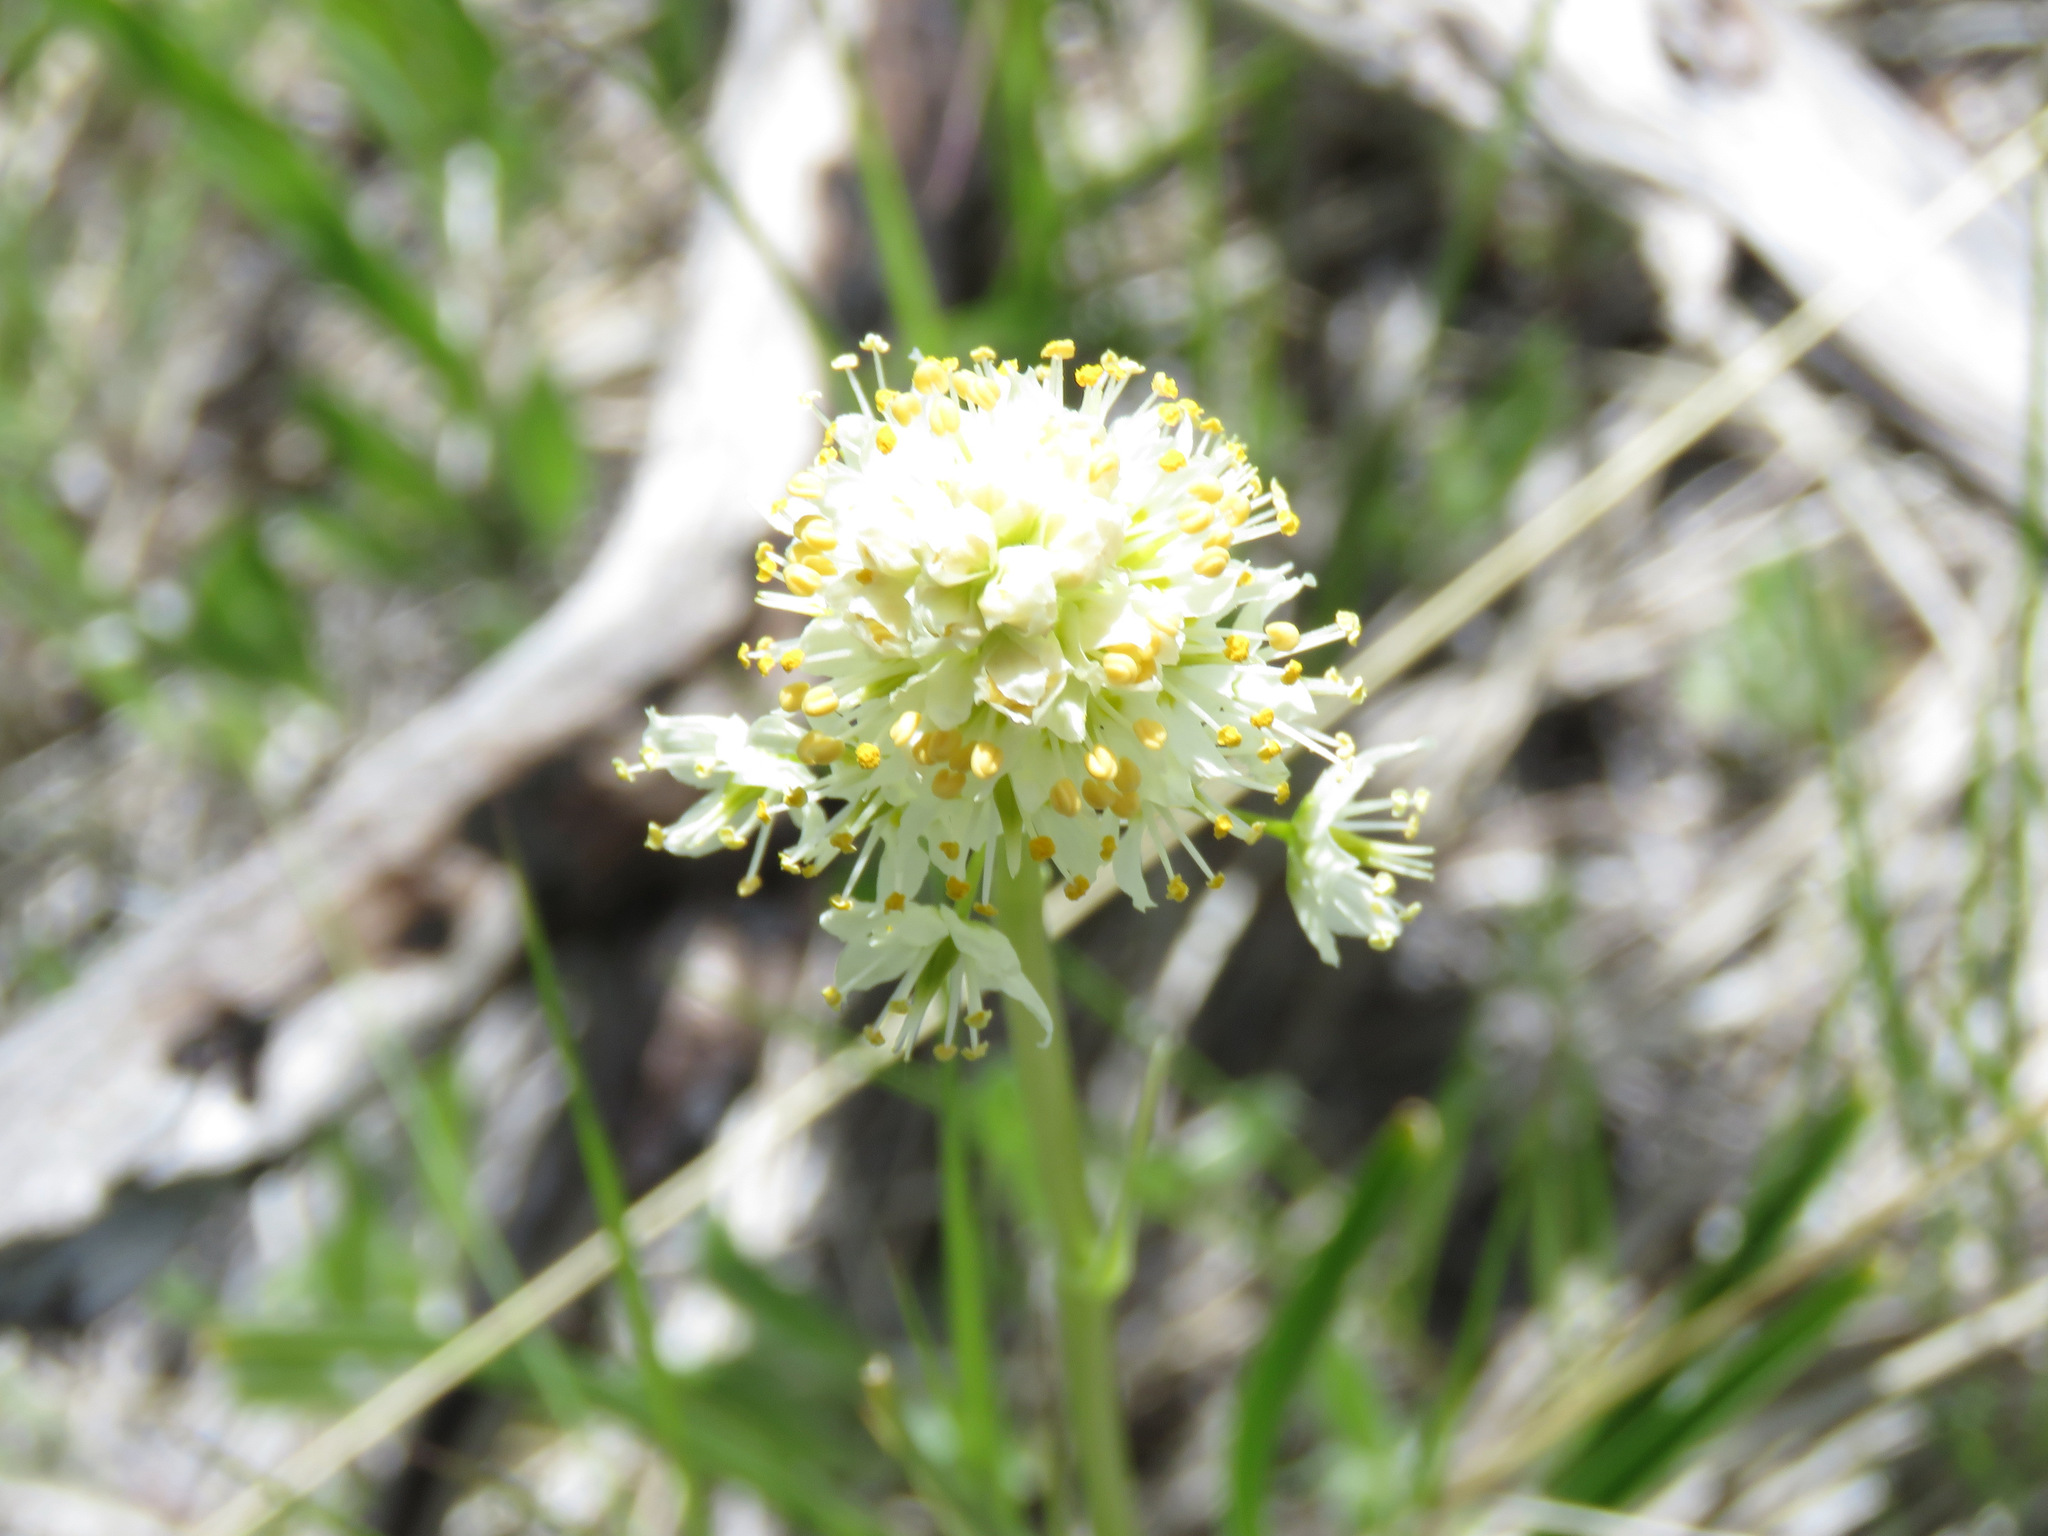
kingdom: Plantae
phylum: Tracheophyta
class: Liliopsida
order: Liliales
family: Melanthiaceae
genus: Toxicoscordion
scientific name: Toxicoscordion venenosum
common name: Meadow death camas
